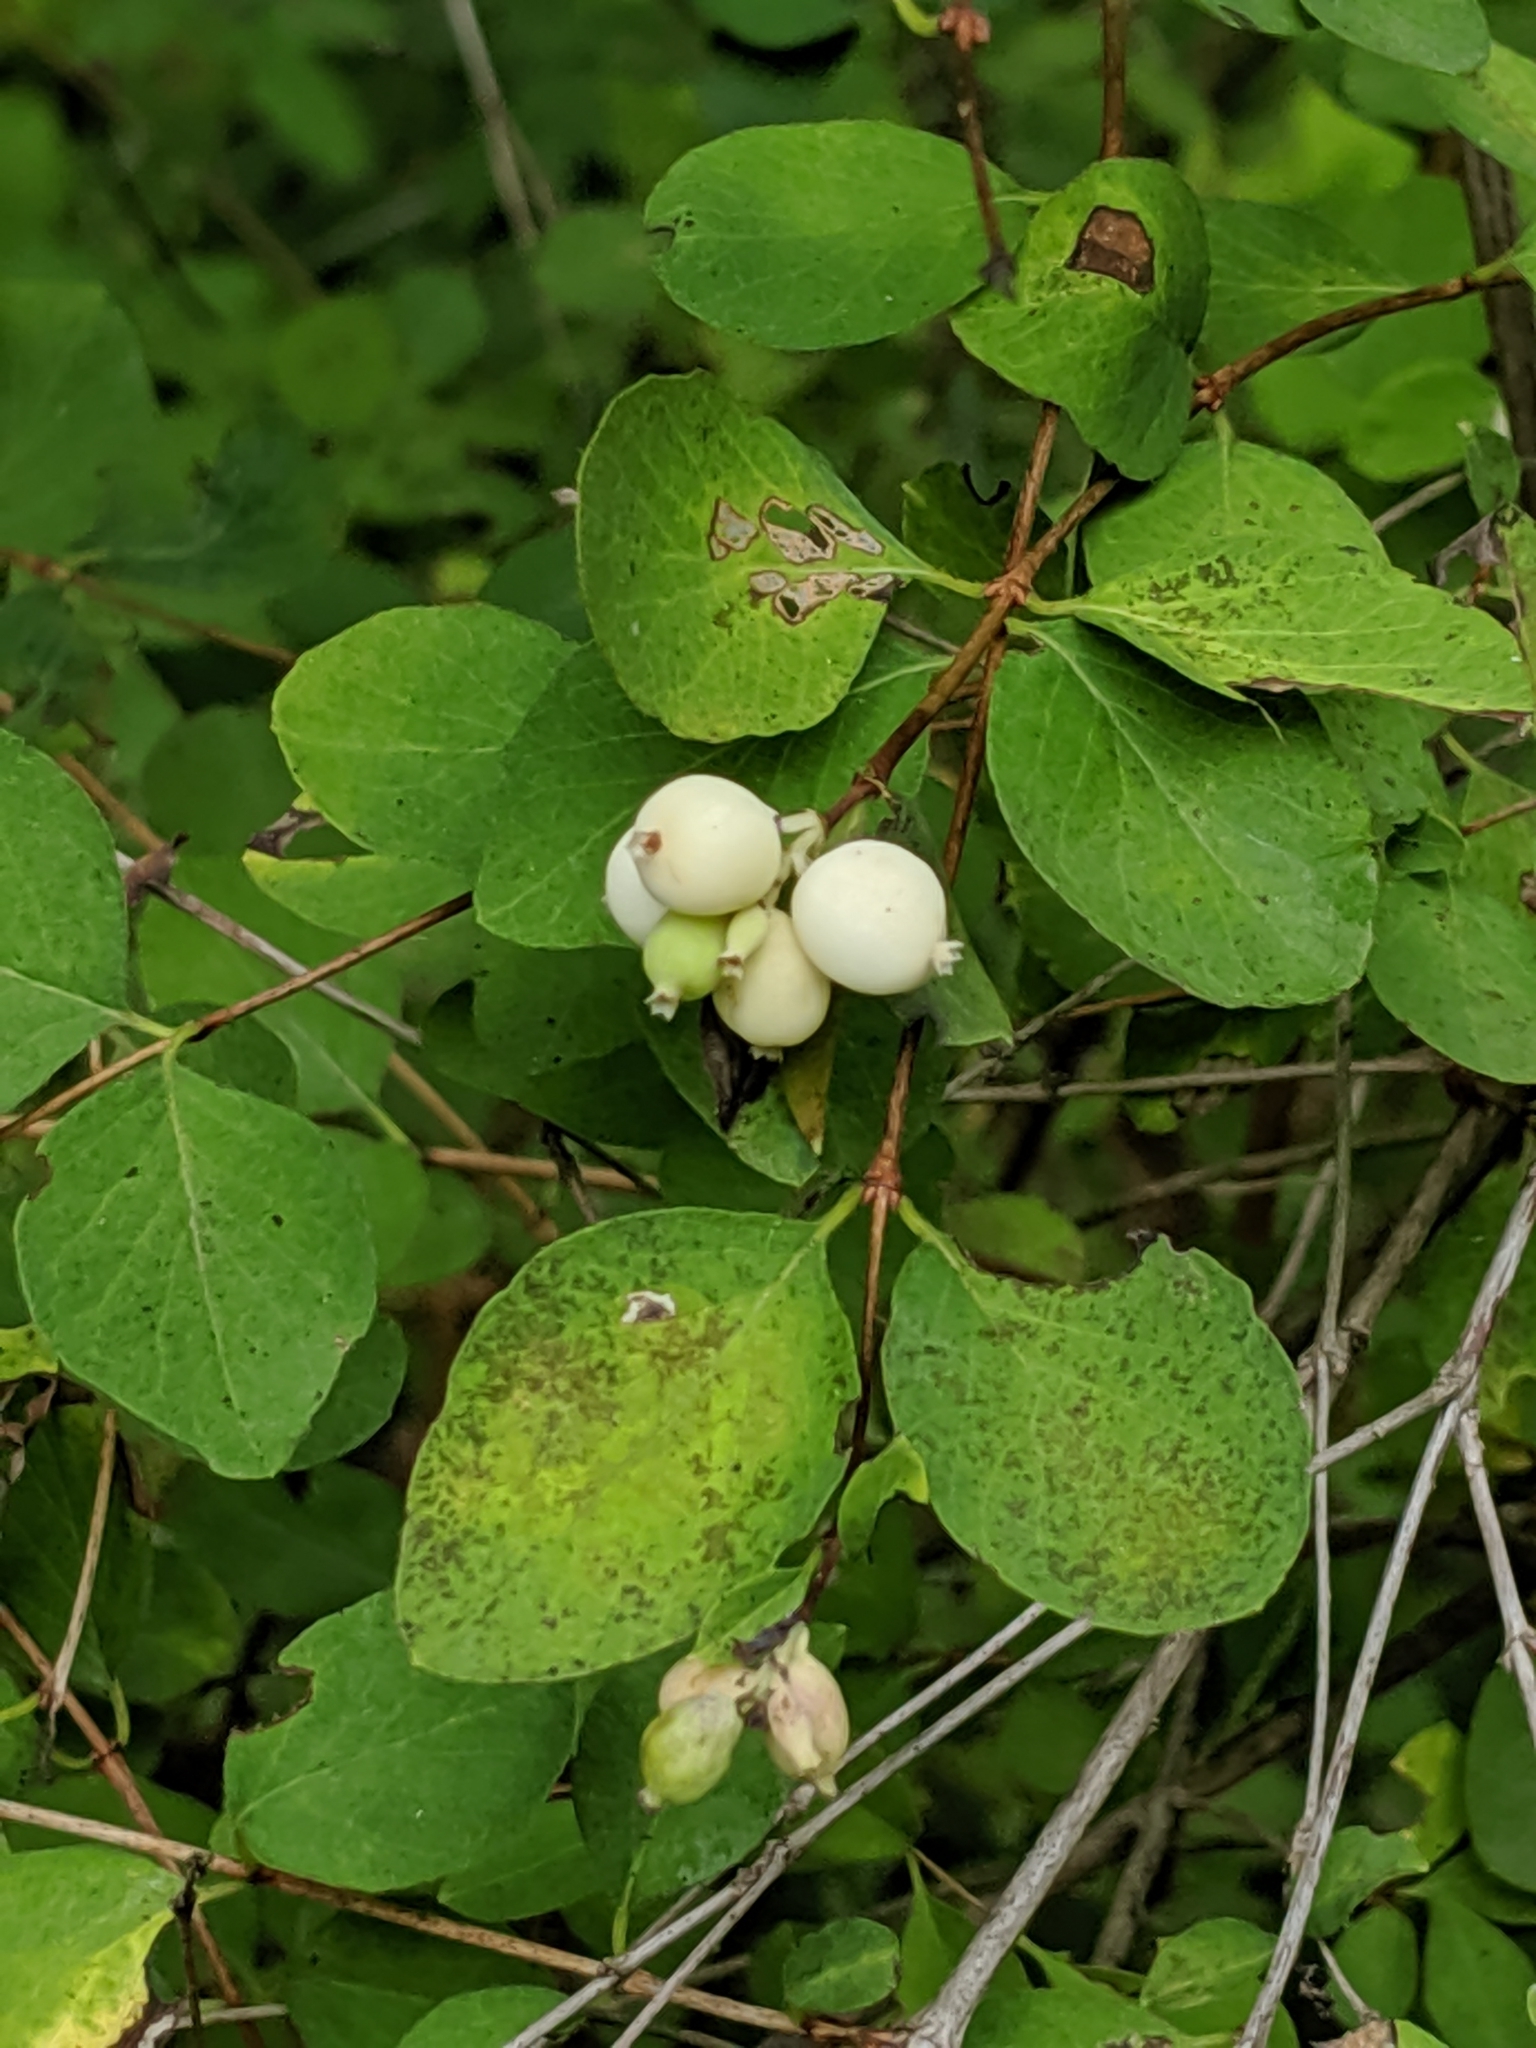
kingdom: Plantae
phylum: Tracheophyta
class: Magnoliopsida
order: Dipsacales
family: Caprifoliaceae
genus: Symphoricarpos
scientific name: Symphoricarpos albus
